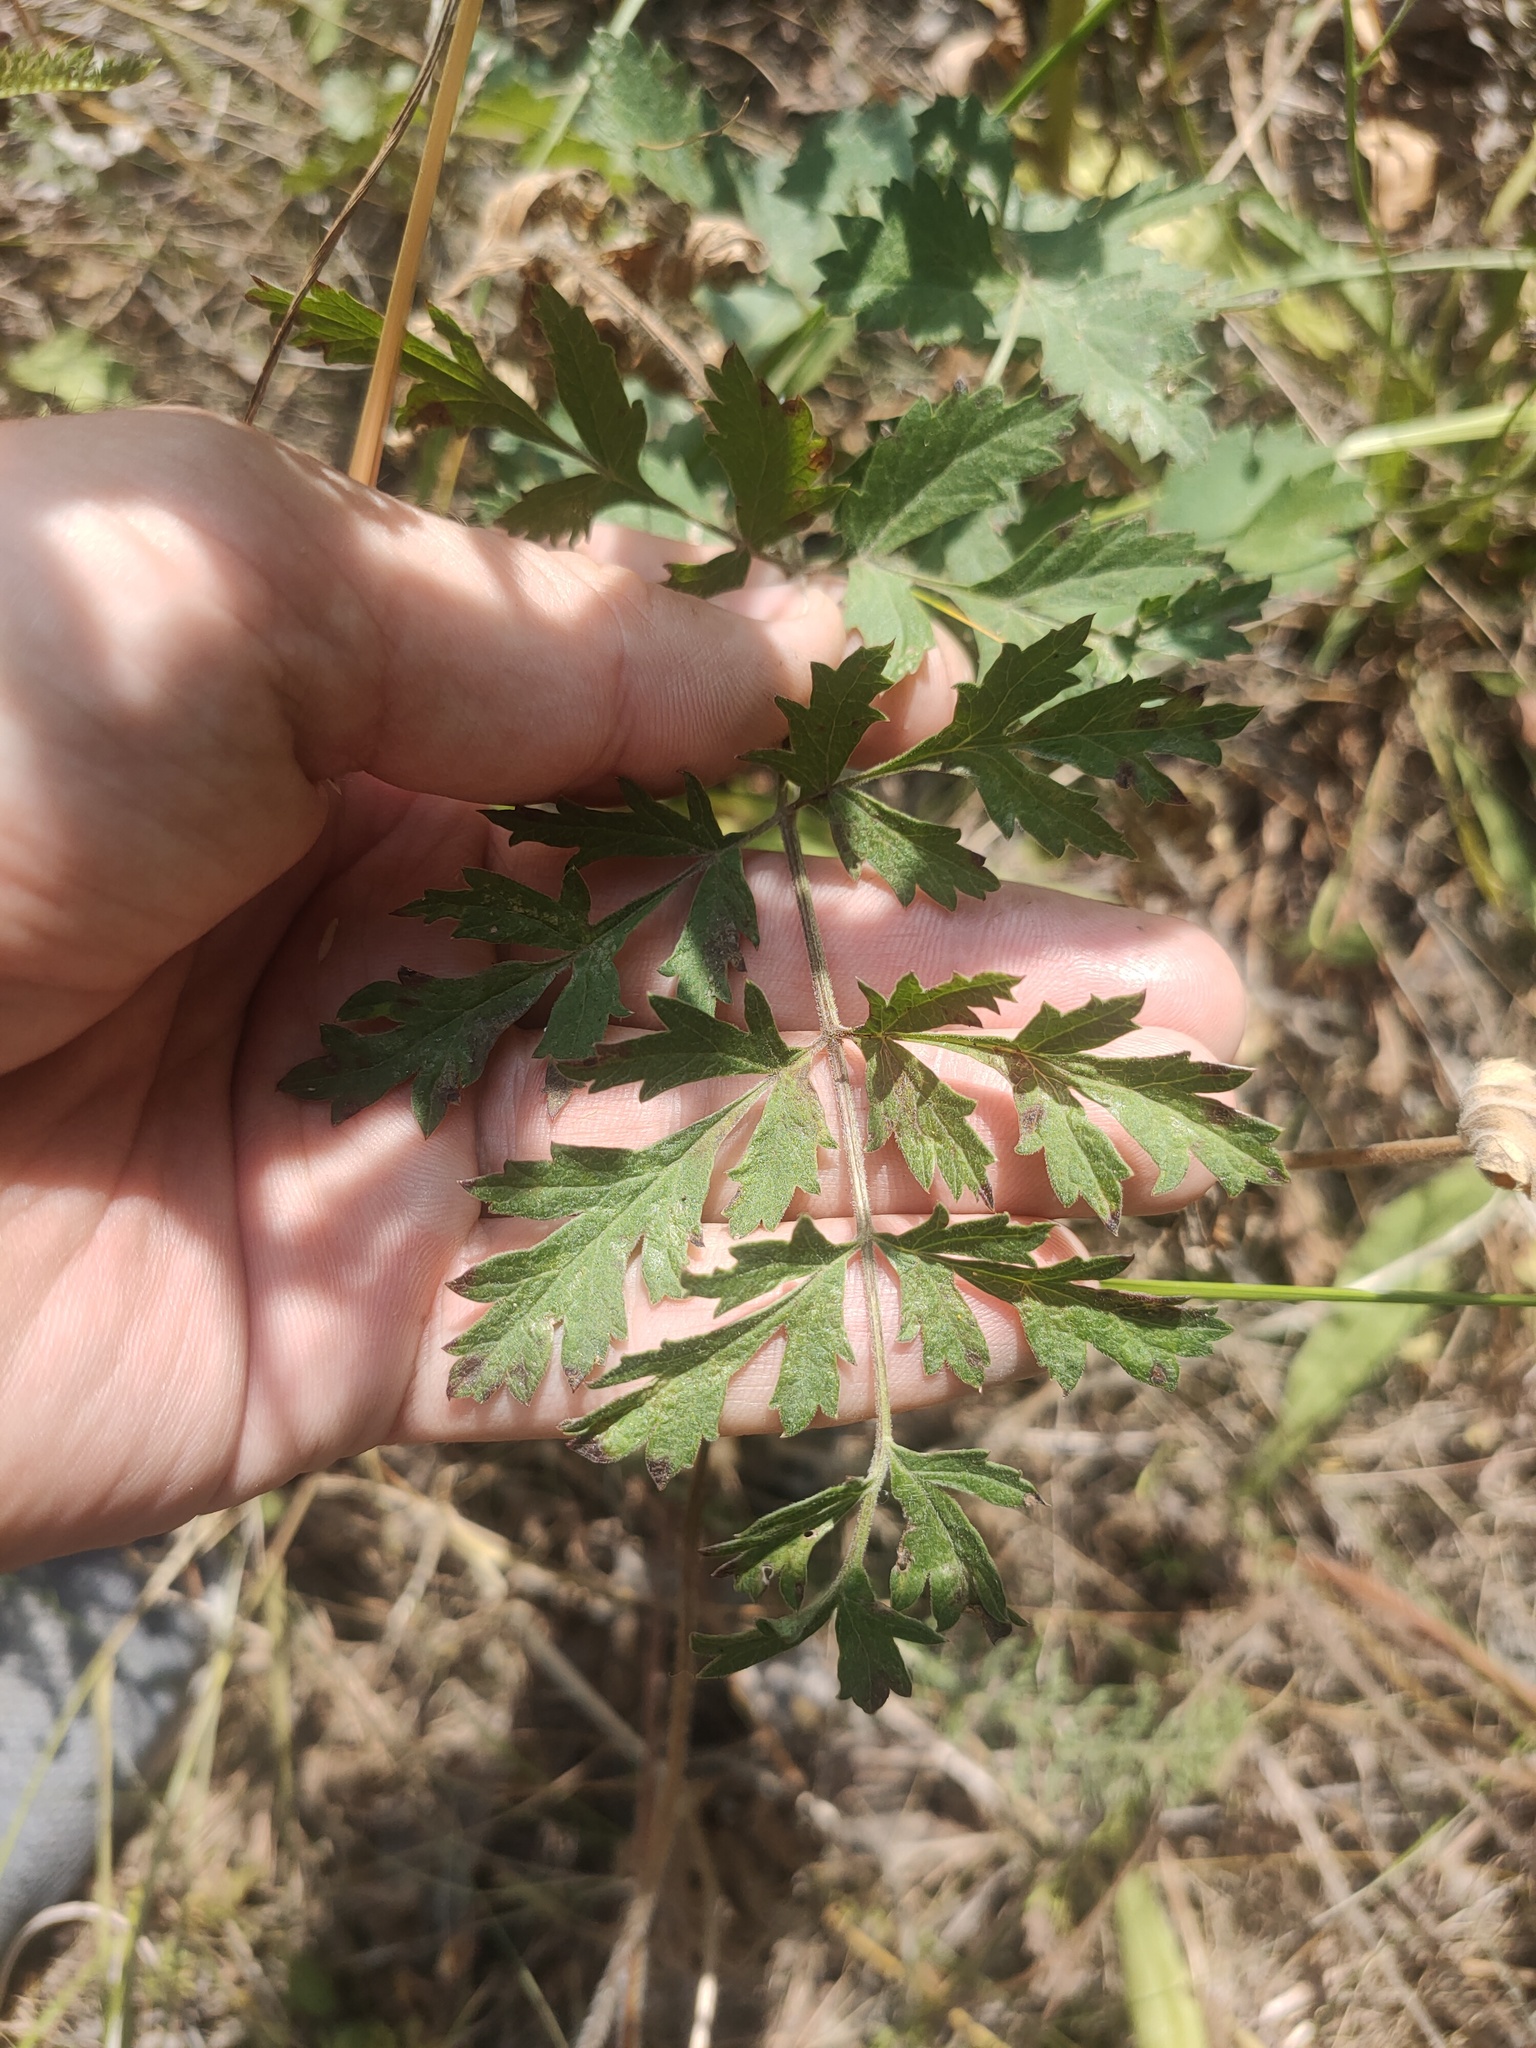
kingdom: Plantae
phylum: Tracheophyta
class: Magnoliopsida
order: Apiales
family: Apiaceae
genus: Pimpinella
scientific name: Pimpinella saxifraga
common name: Burnet-saxifrage
